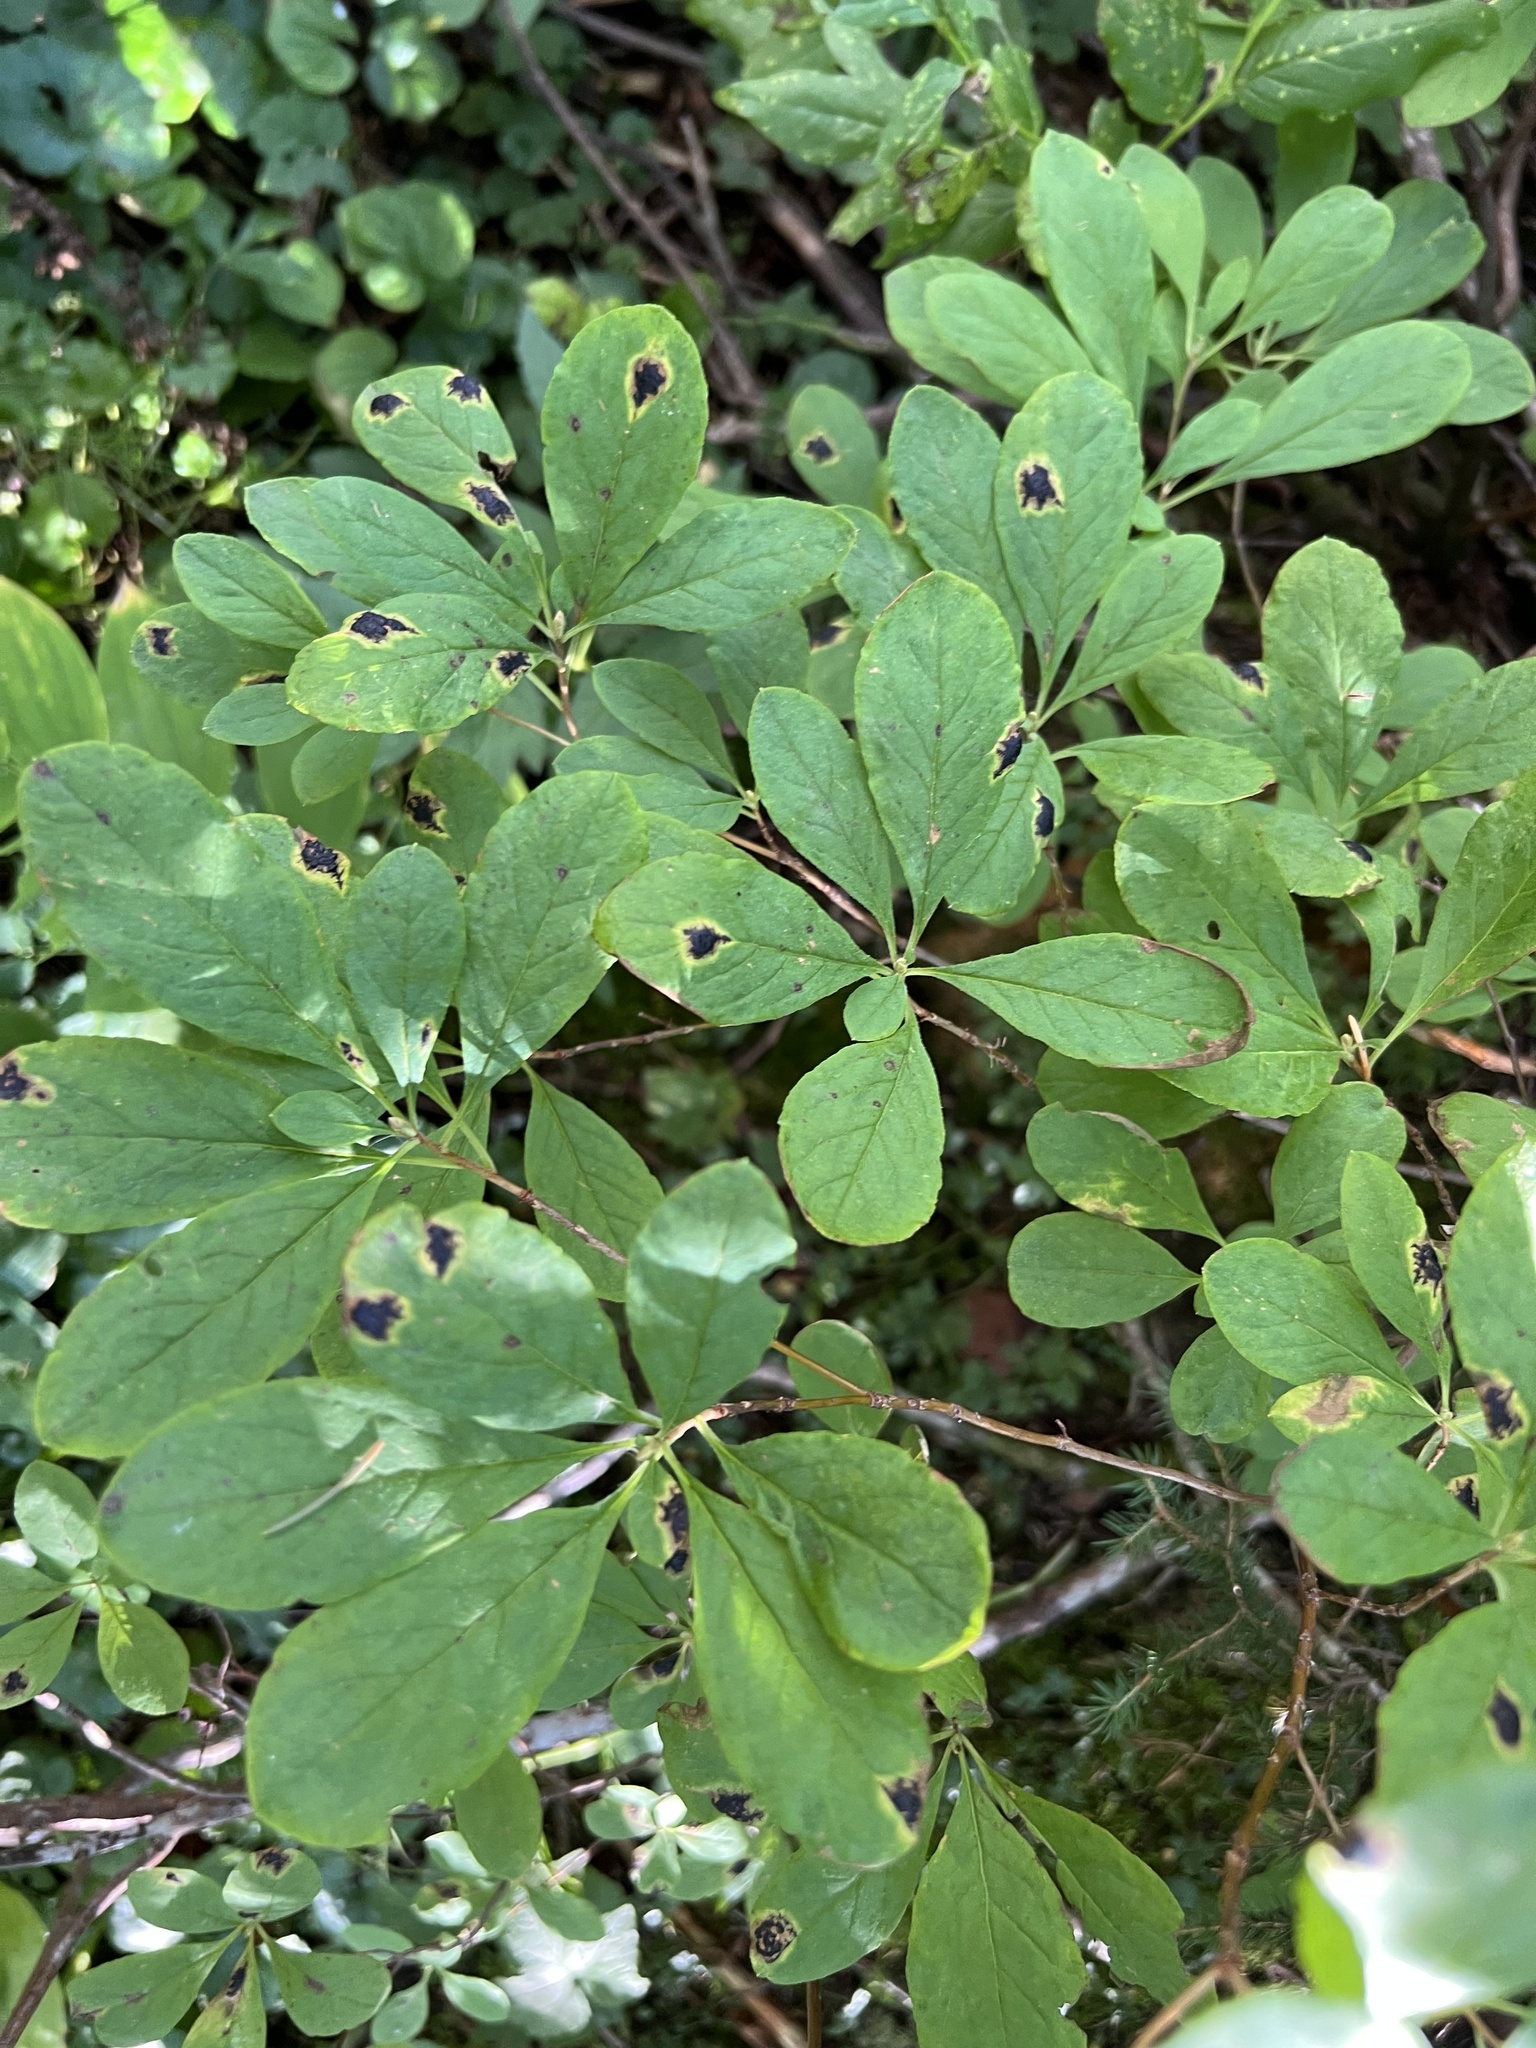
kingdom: Plantae
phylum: Tracheophyta
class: Magnoliopsida
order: Ericales
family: Ericaceae
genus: Rhododendron
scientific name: Rhododendron menziesii
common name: Pacific menziesia
